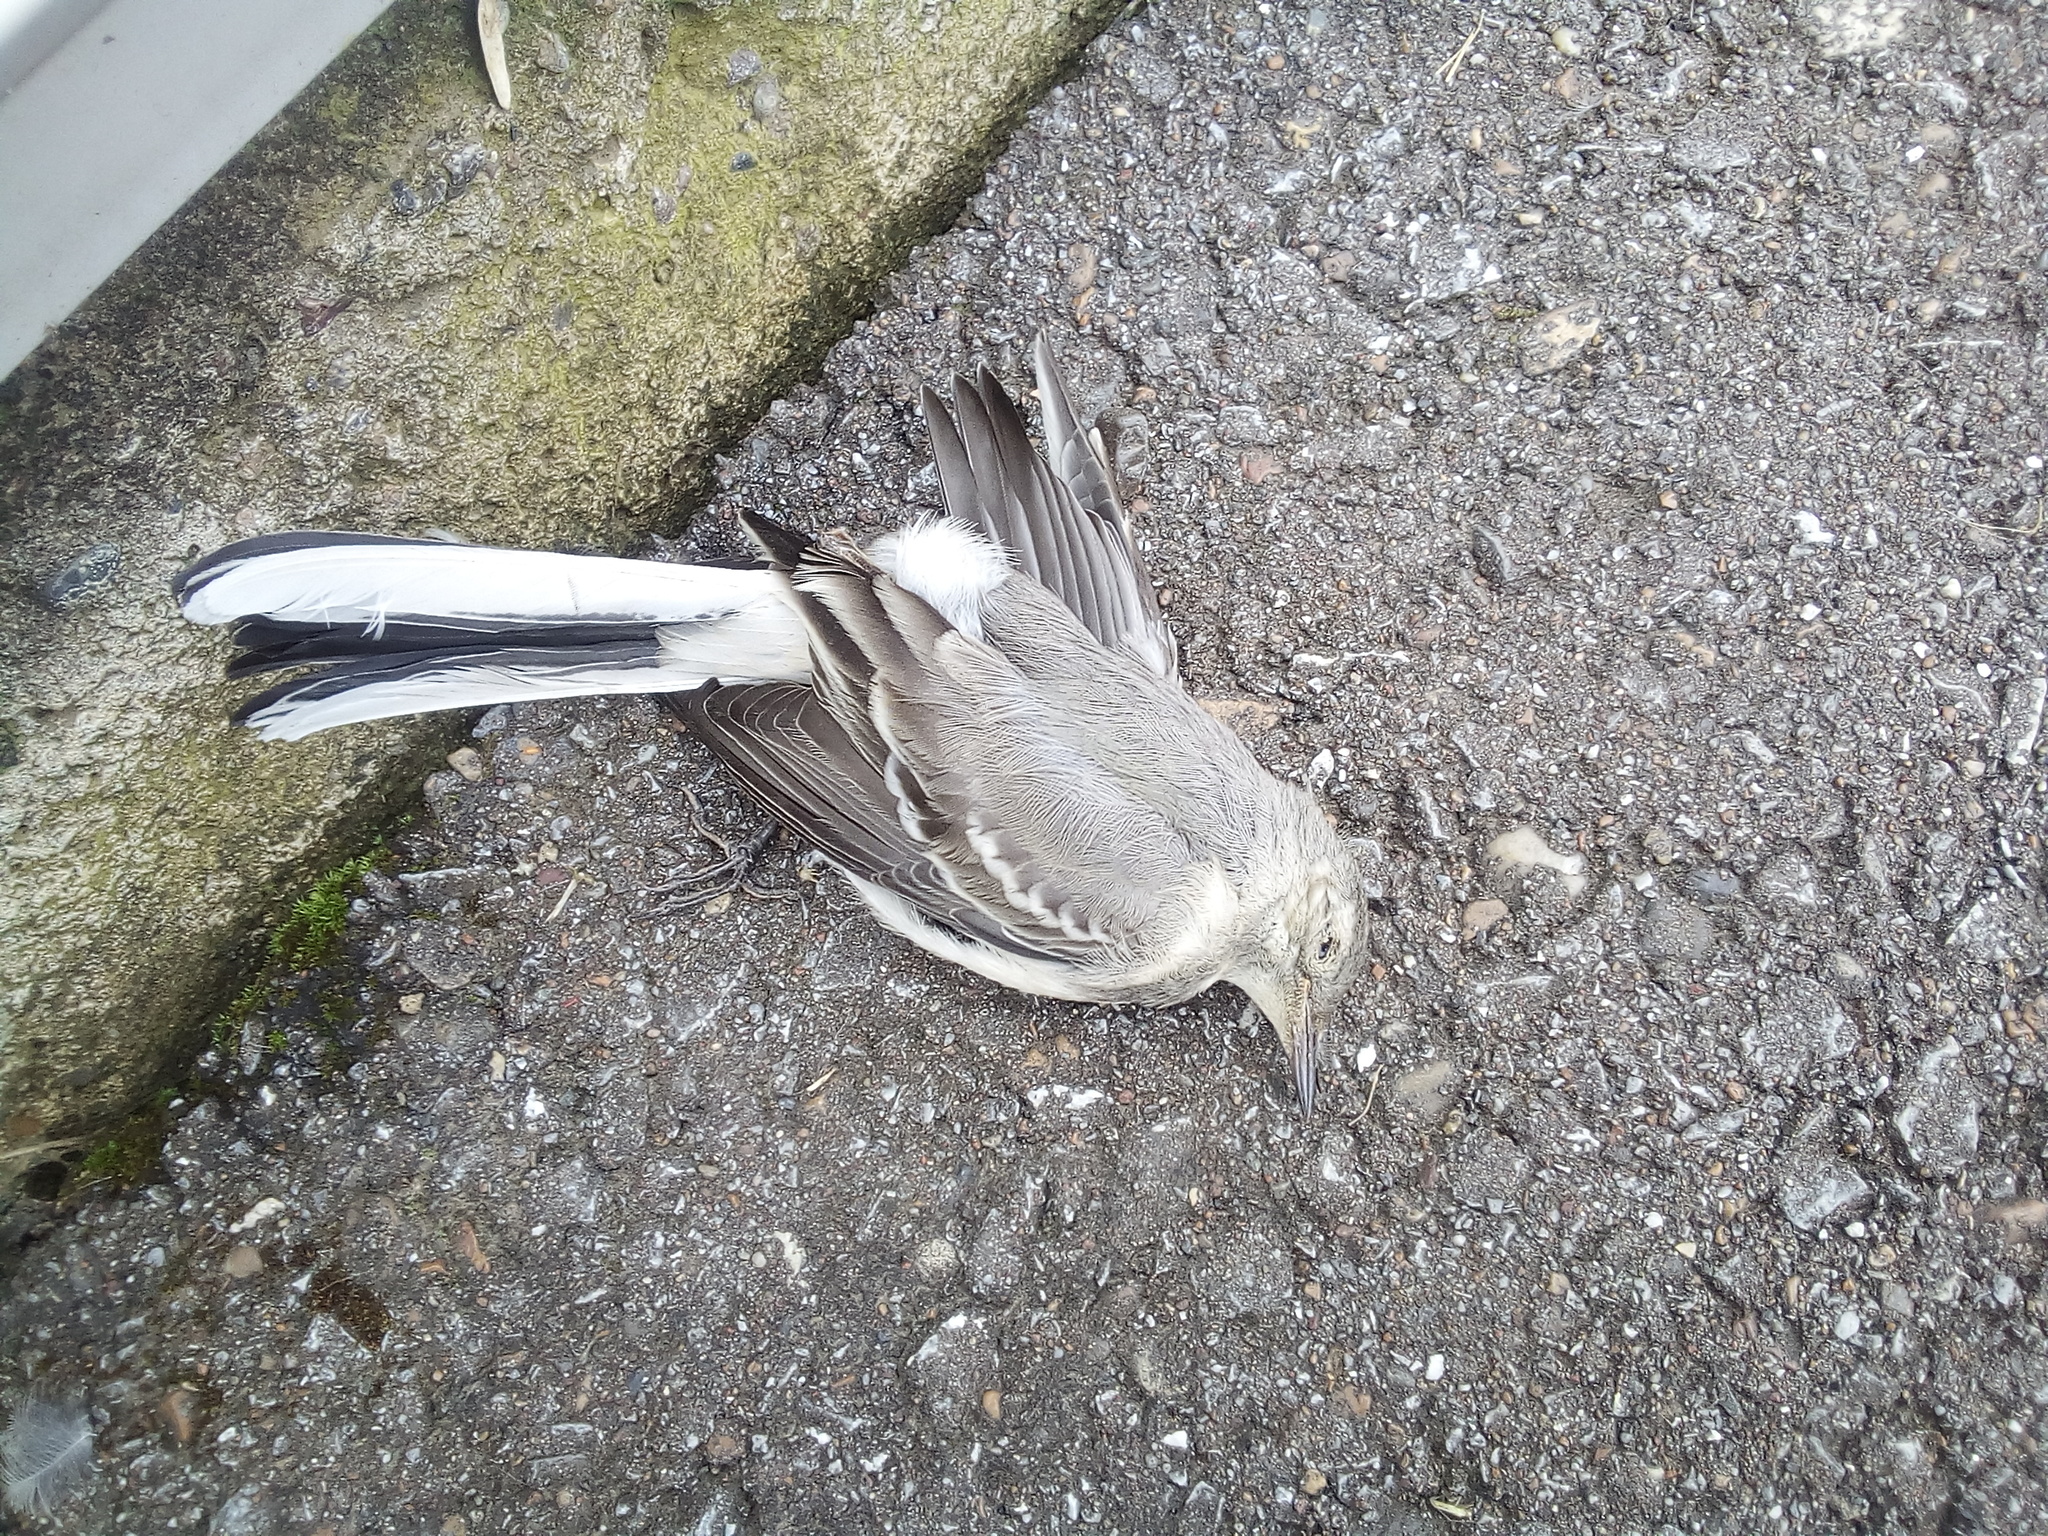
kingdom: Animalia
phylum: Chordata
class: Aves
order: Passeriformes
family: Motacillidae
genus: Motacilla
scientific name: Motacilla alba
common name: White wagtail
